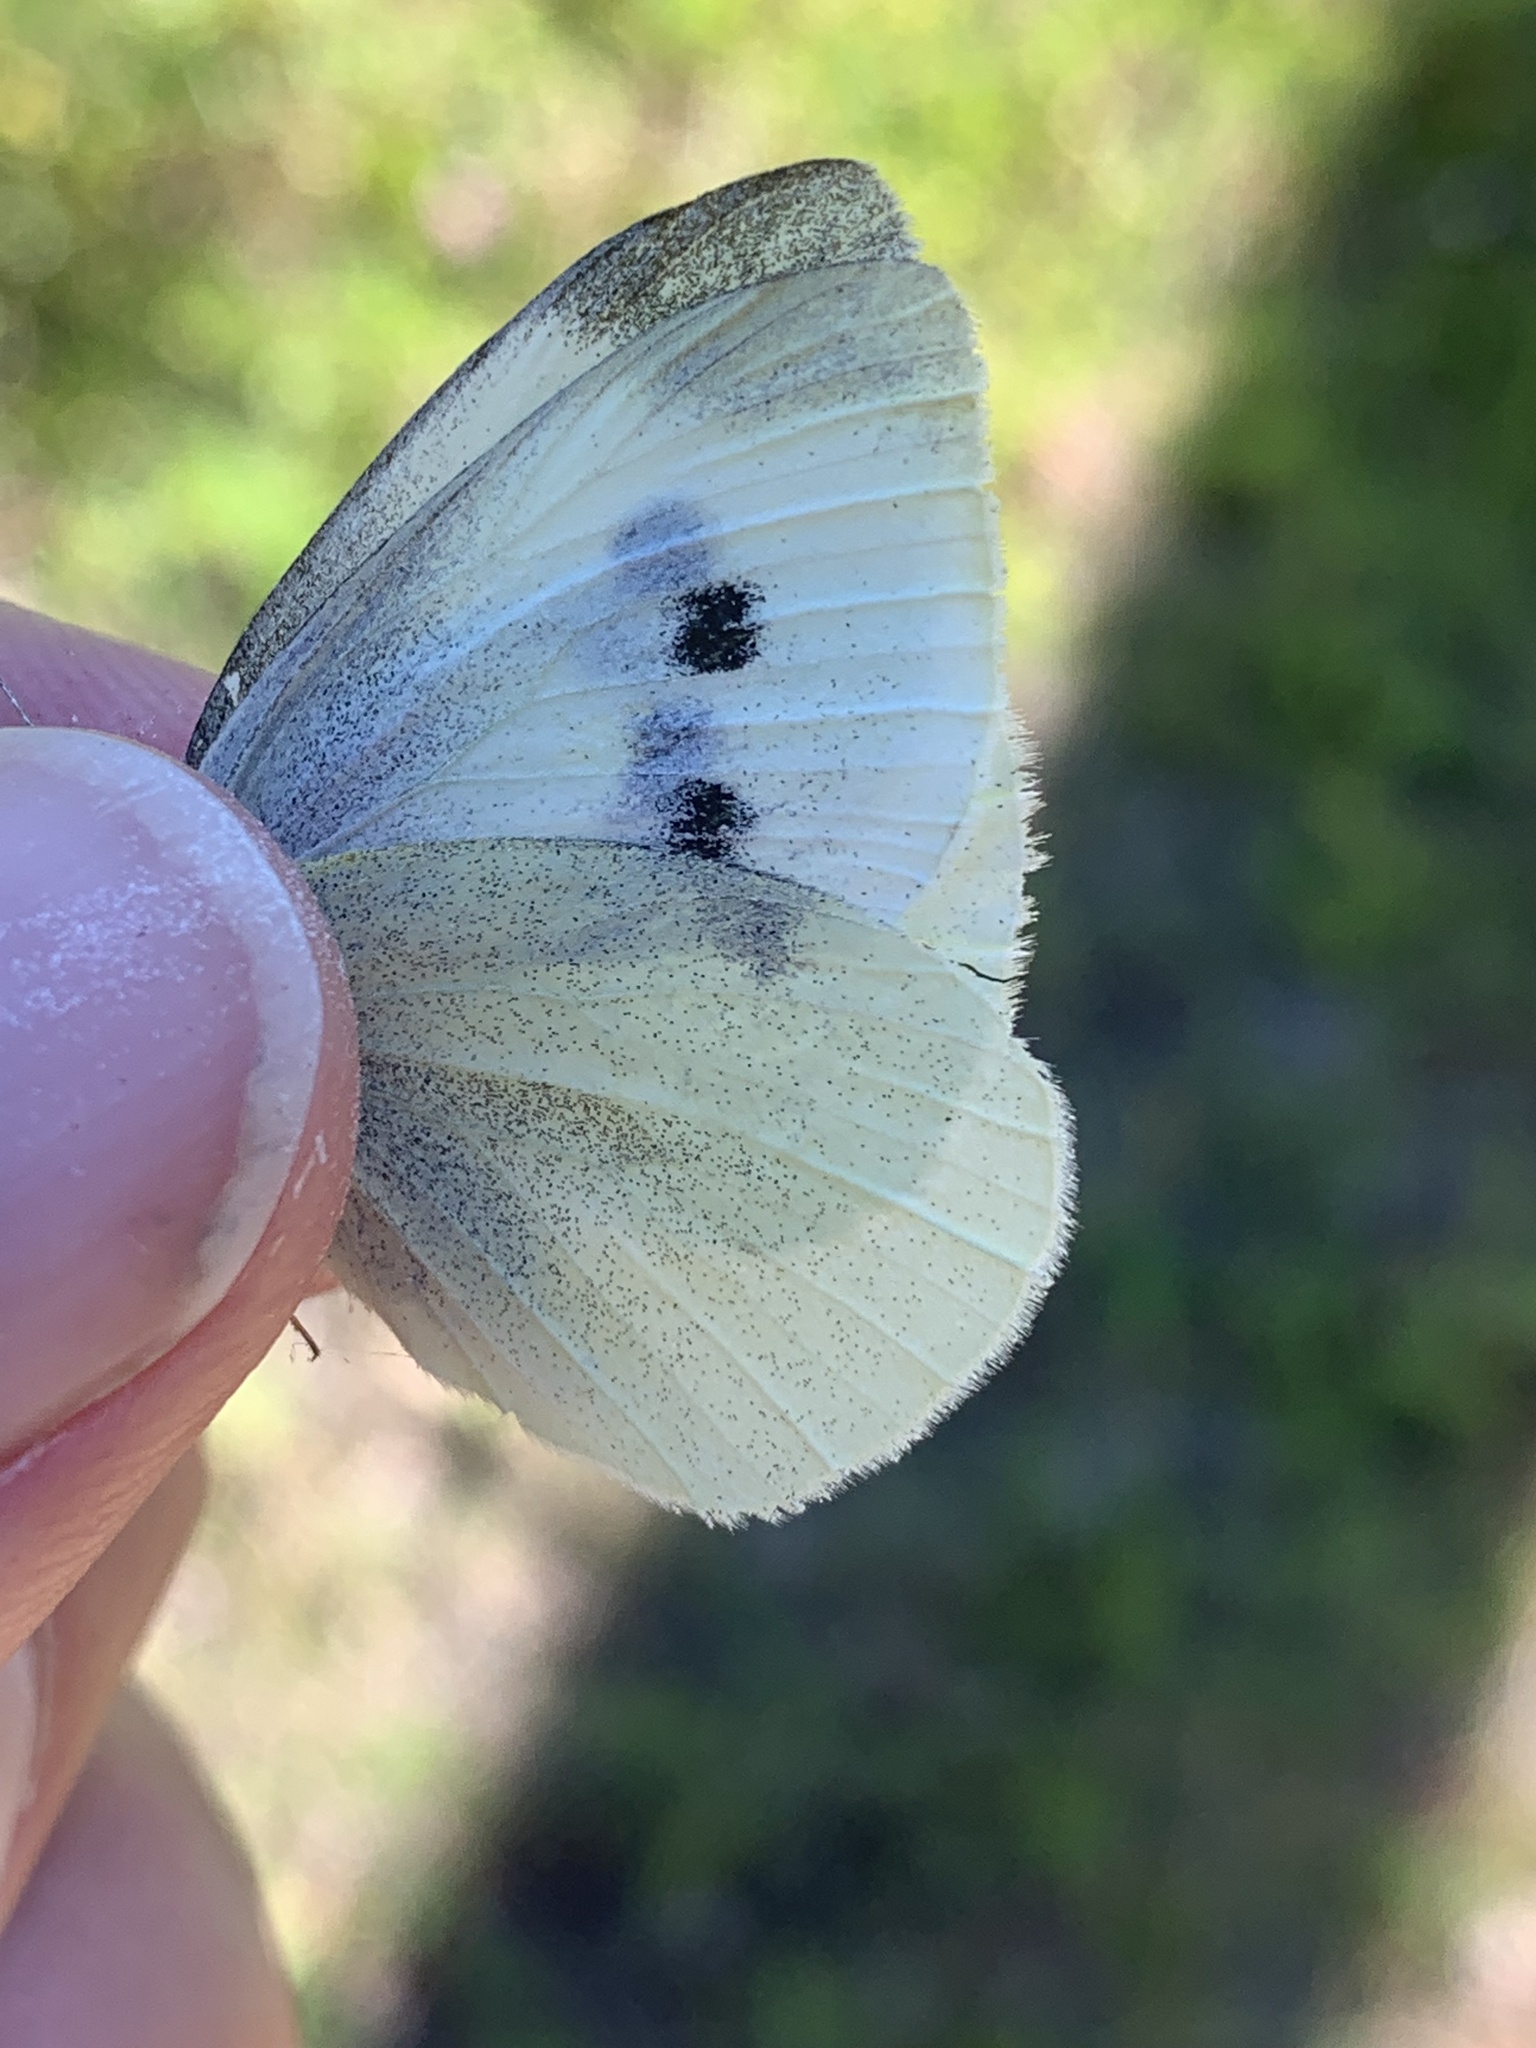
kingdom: Animalia
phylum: Arthropoda
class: Insecta
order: Lepidoptera
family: Pieridae
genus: Pieris
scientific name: Pieris rapae
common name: Small white
